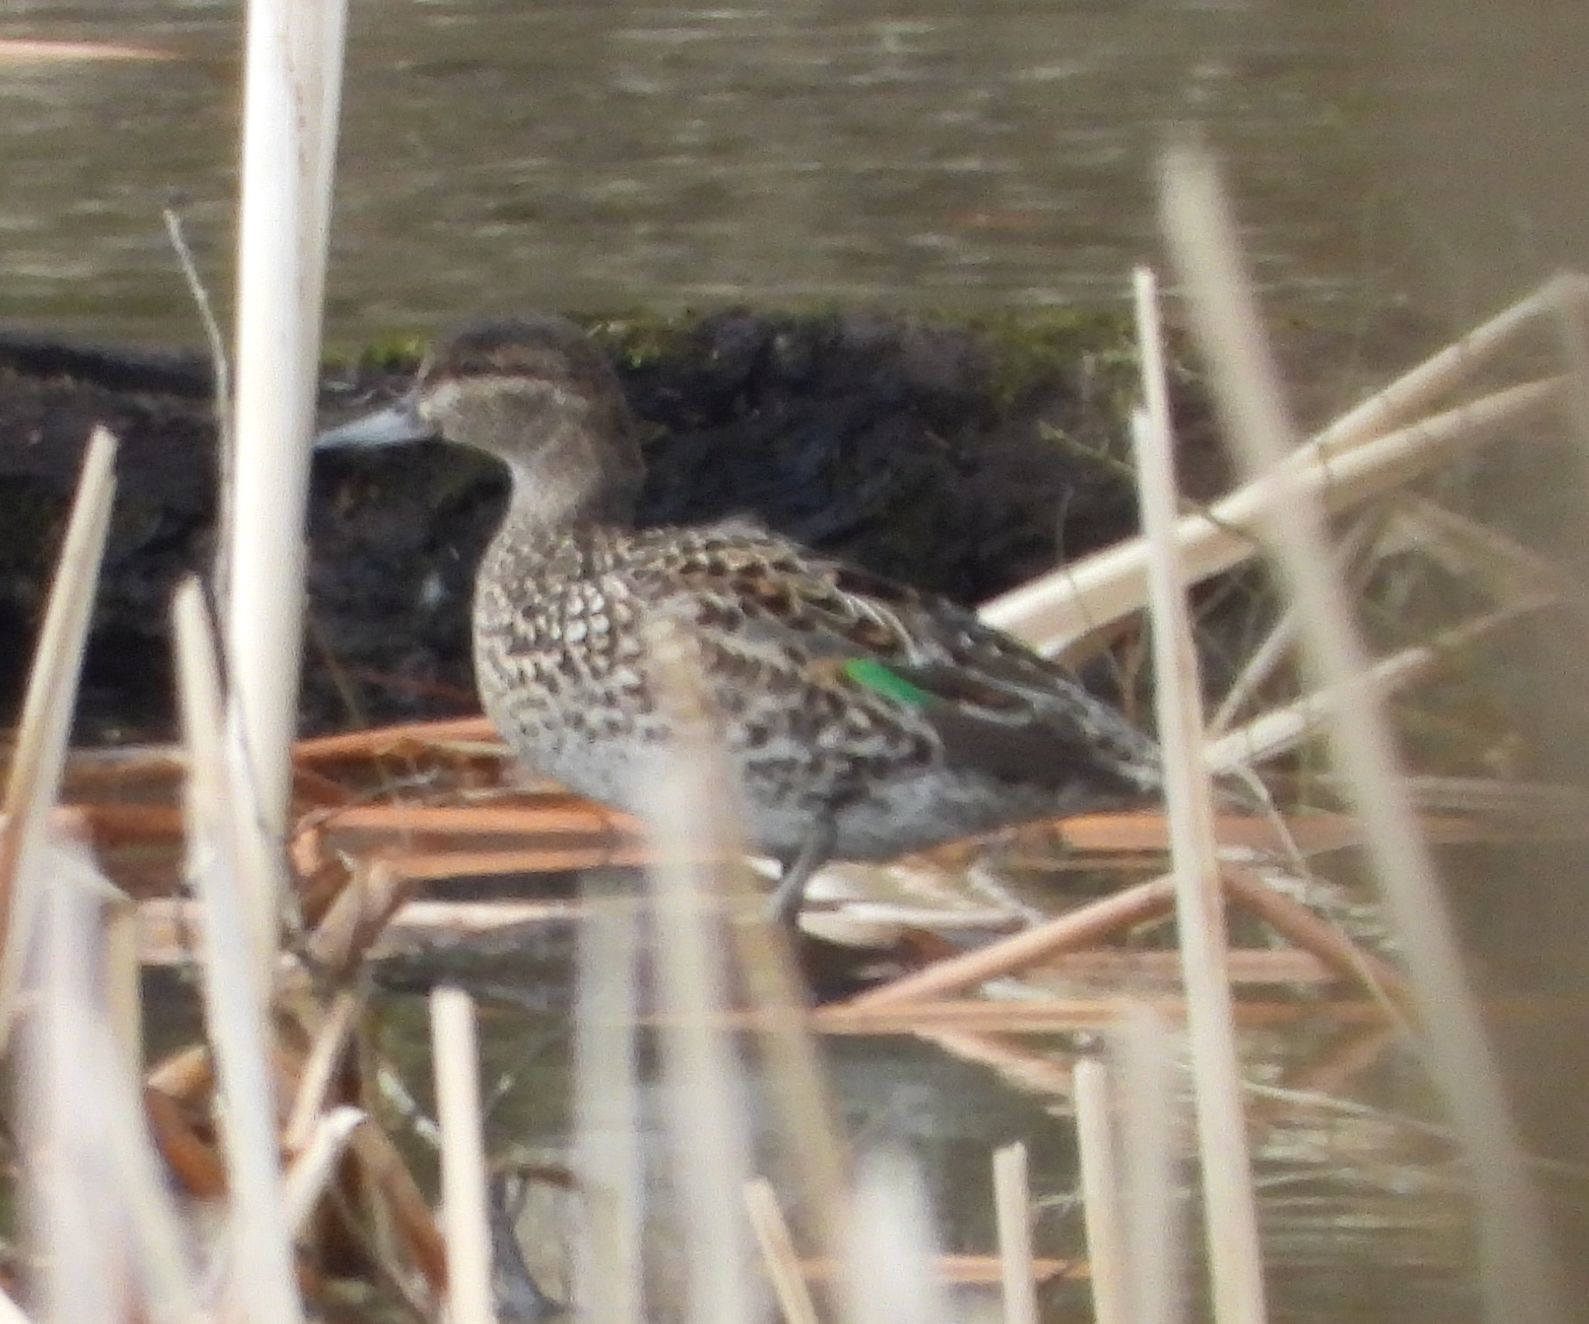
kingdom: Animalia
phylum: Chordata
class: Aves
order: Anseriformes
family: Anatidae
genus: Anas
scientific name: Anas crecca
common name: Eurasian teal
